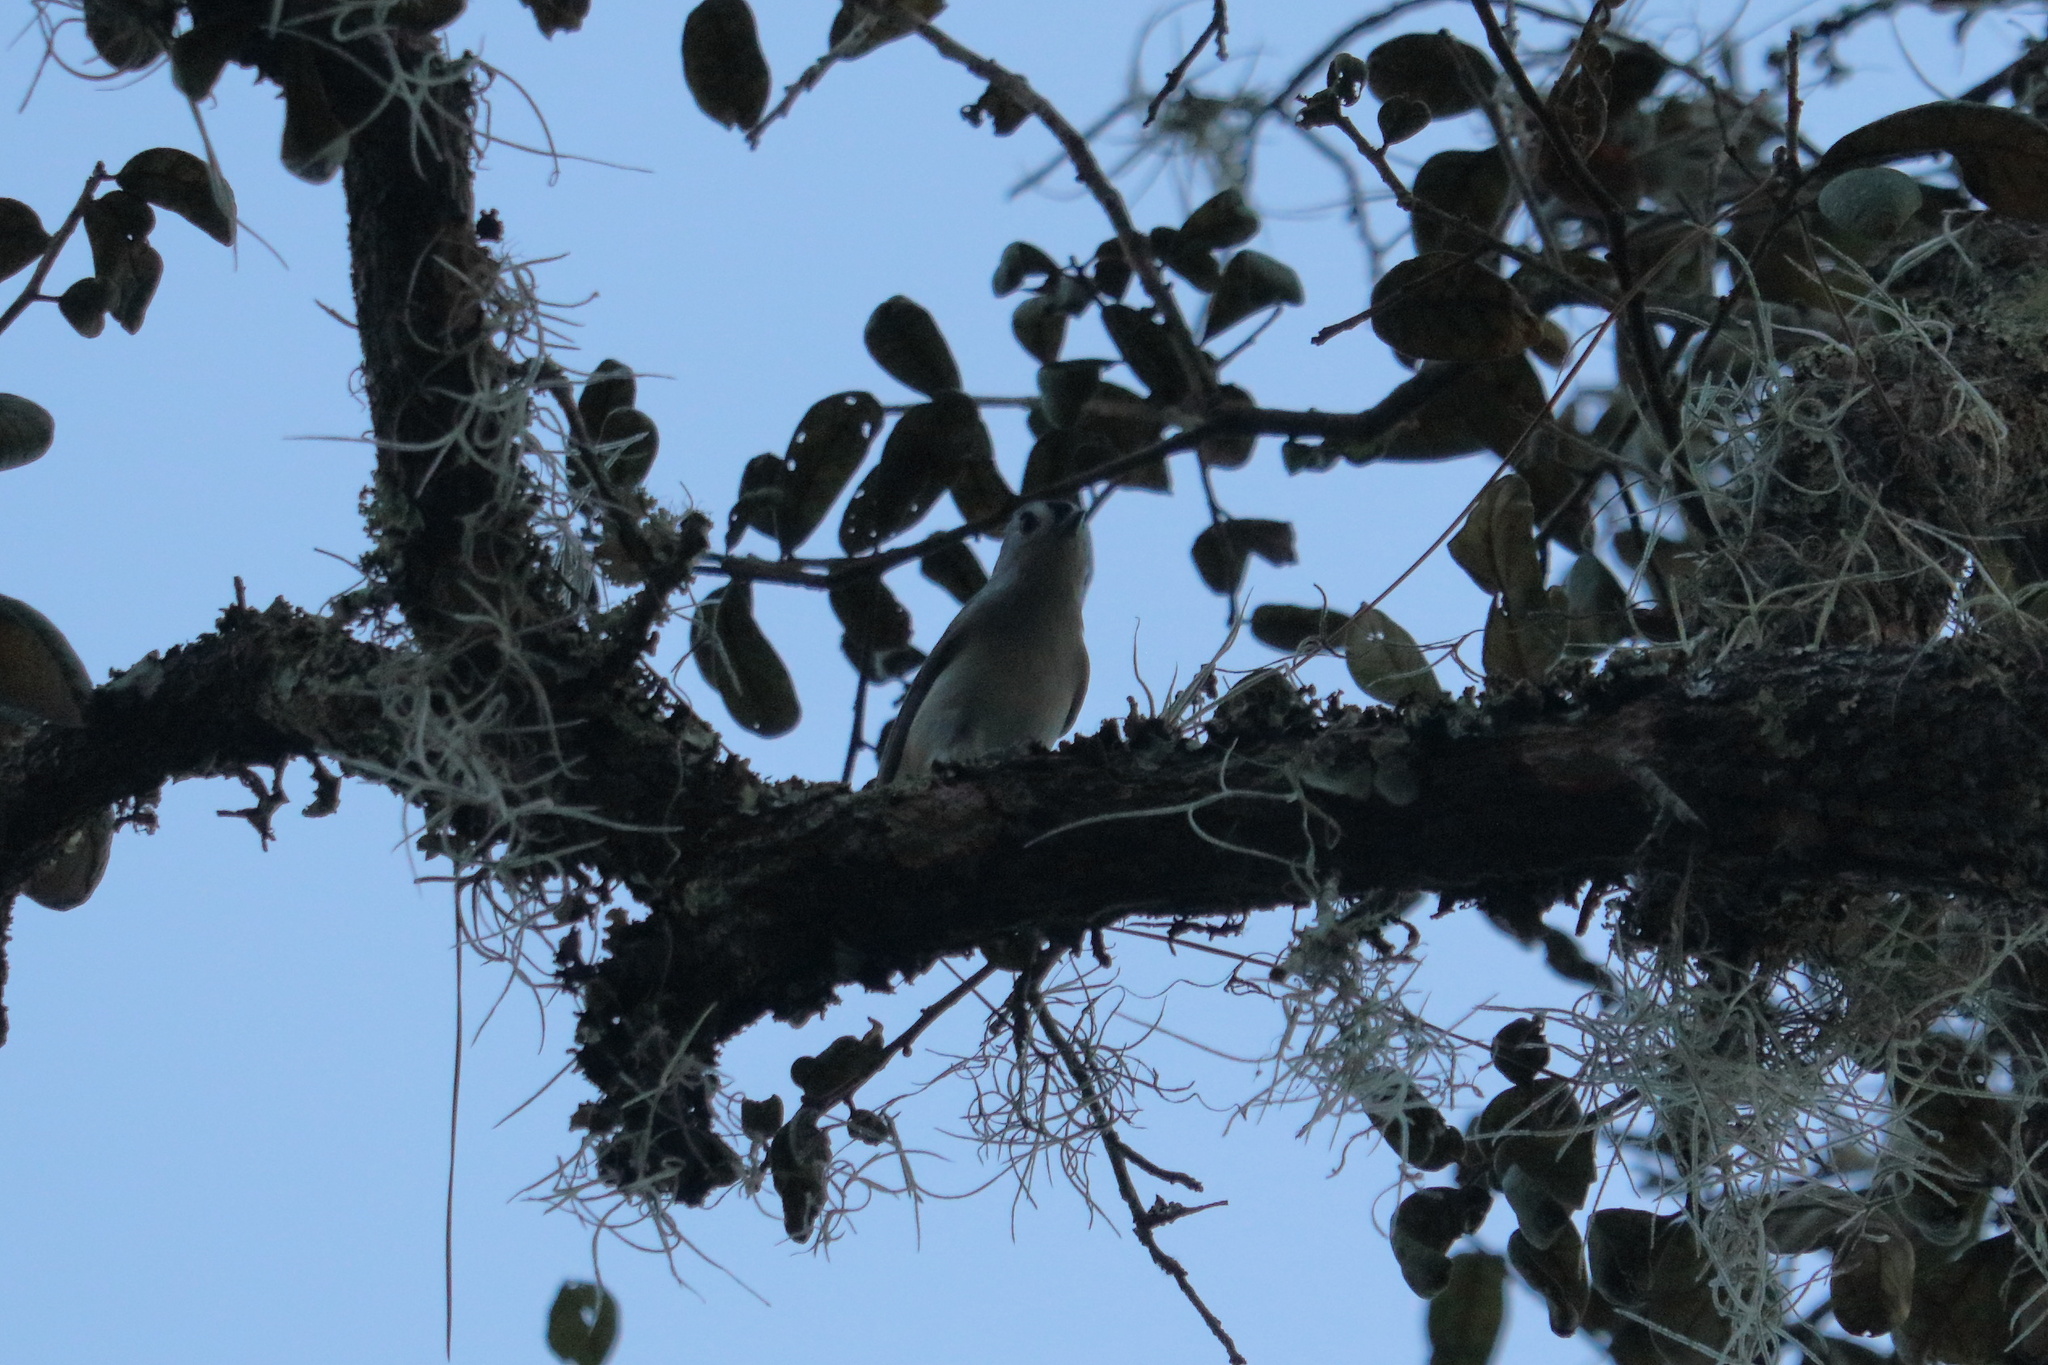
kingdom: Animalia
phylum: Chordata
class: Aves
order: Passeriformes
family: Paridae
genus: Baeolophus
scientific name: Baeolophus bicolor
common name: Tufted titmouse
